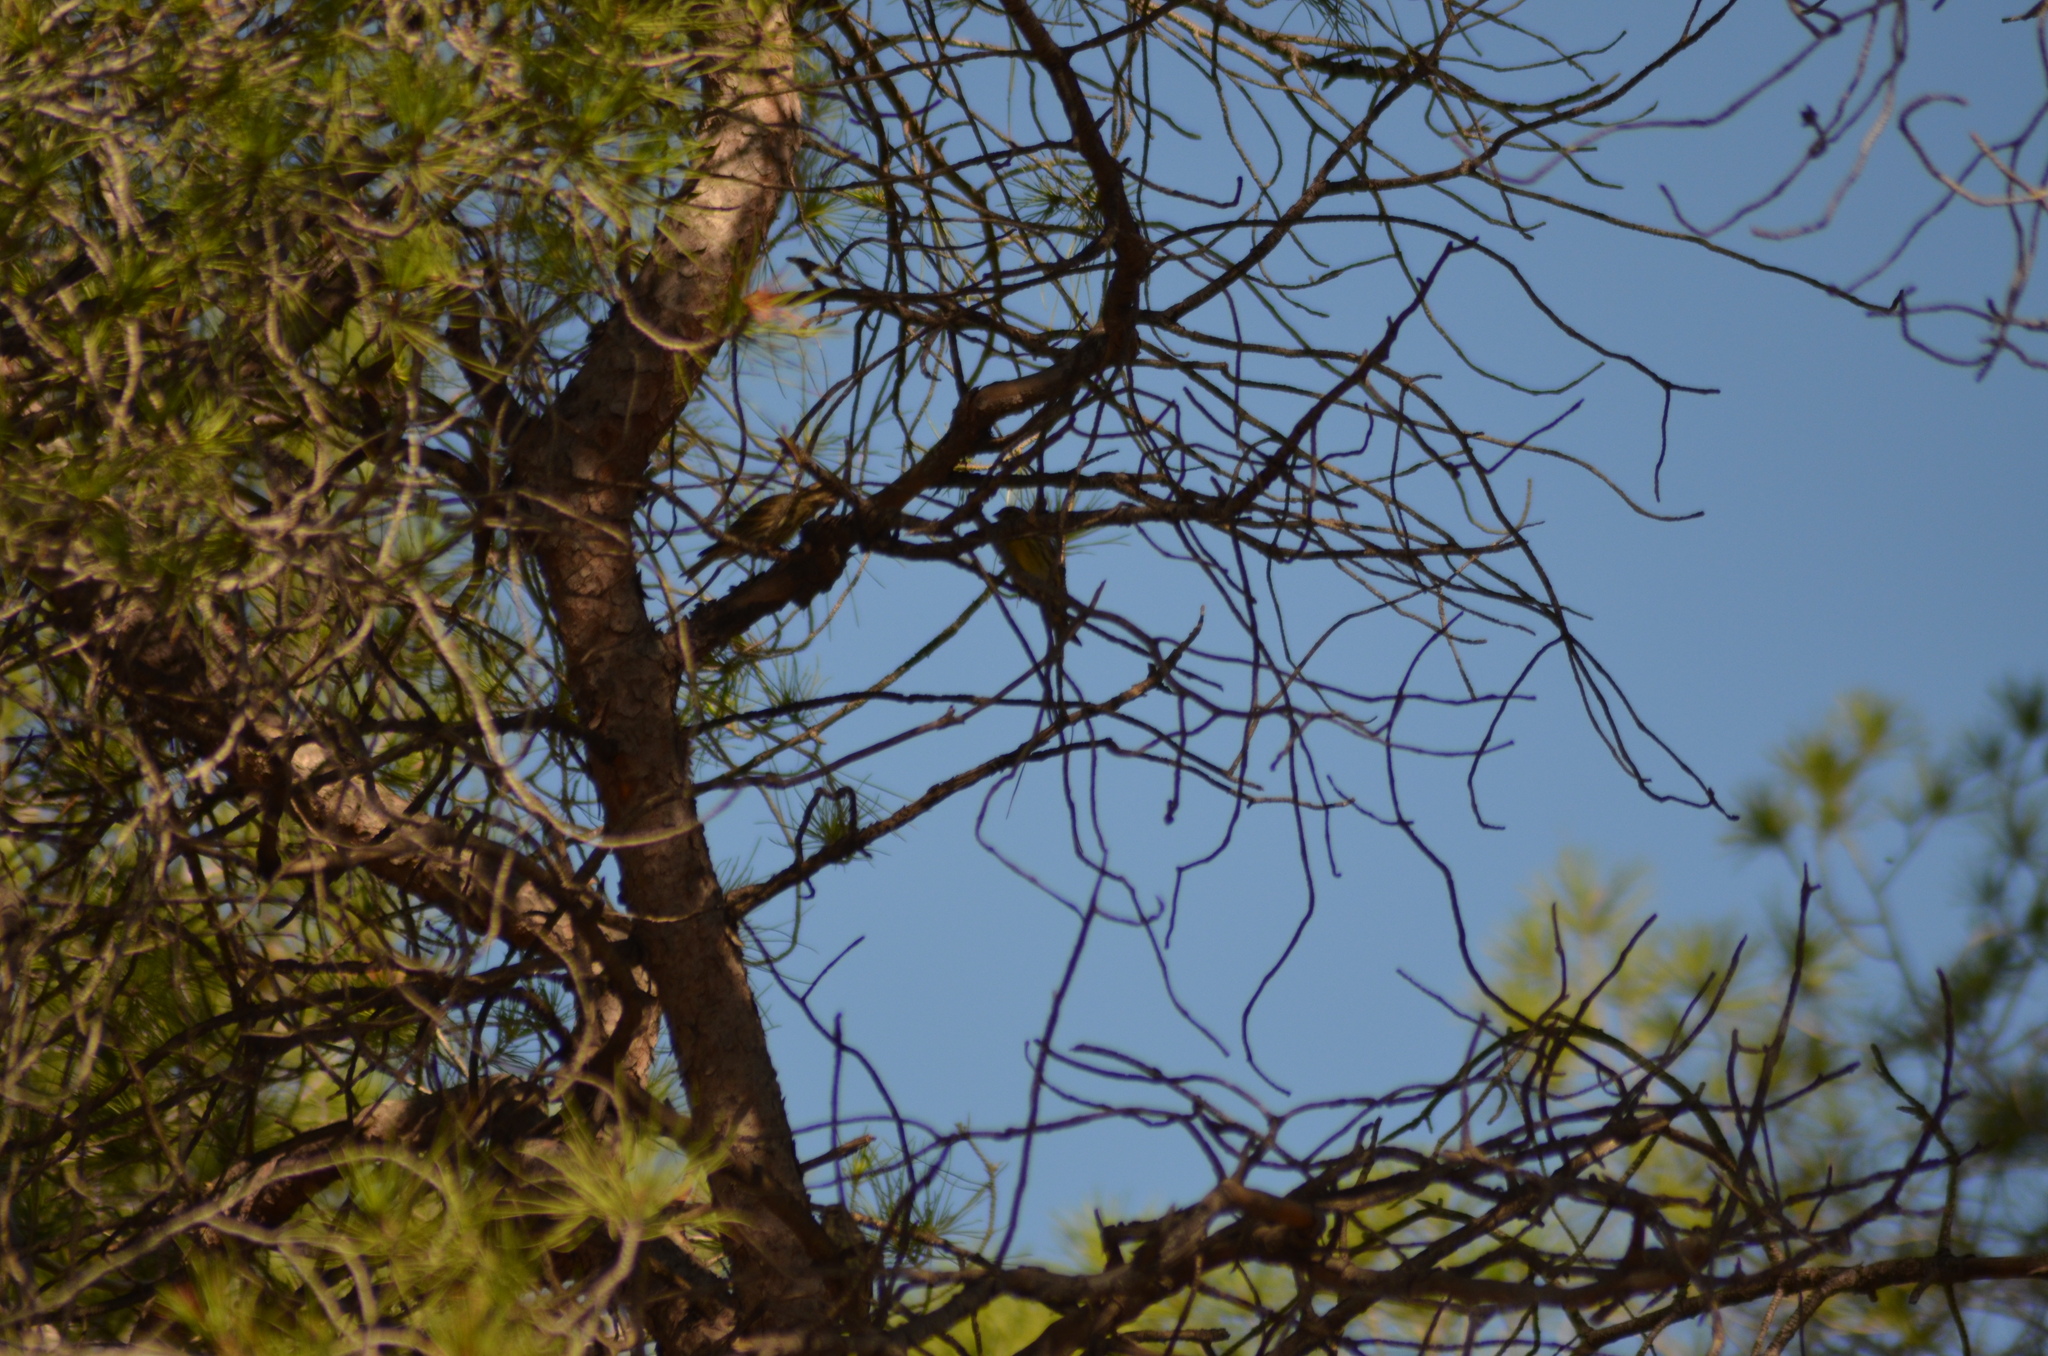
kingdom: Animalia
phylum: Chordata
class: Aves
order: Passeriformes
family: Fringillidae
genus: Serinus
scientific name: Serinus serinus
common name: European serin
